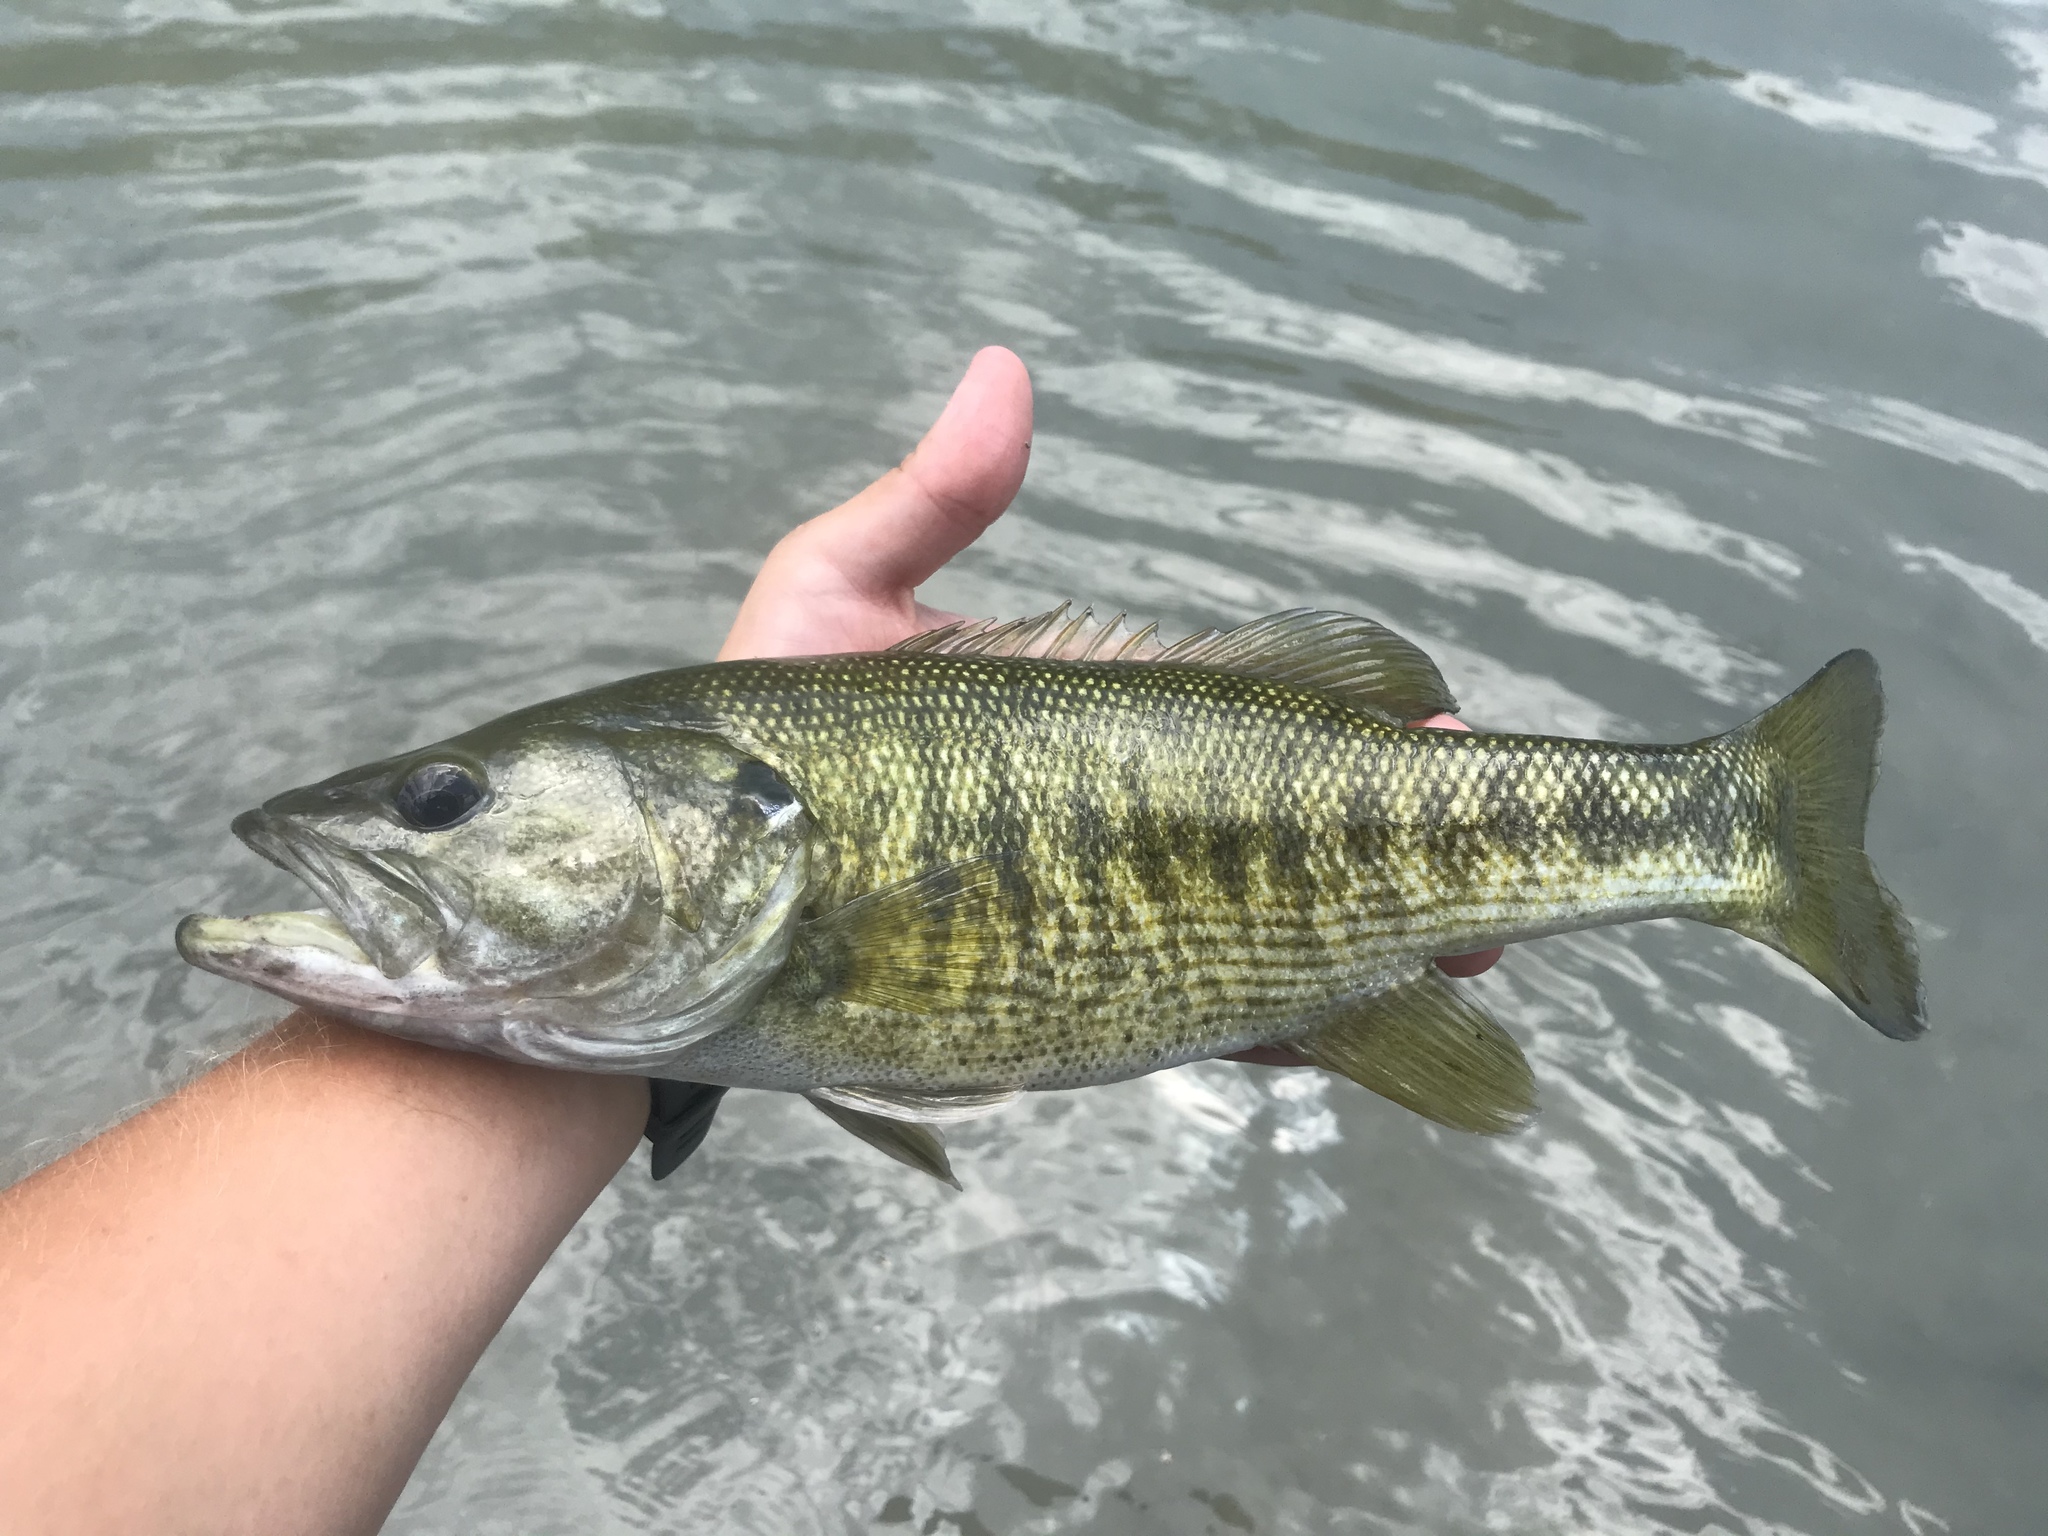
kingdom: Animalia
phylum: Chordata
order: Perciformes
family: Centrarchidae
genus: Micropterus
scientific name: Micropterus treculii
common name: Guadalupe bass
